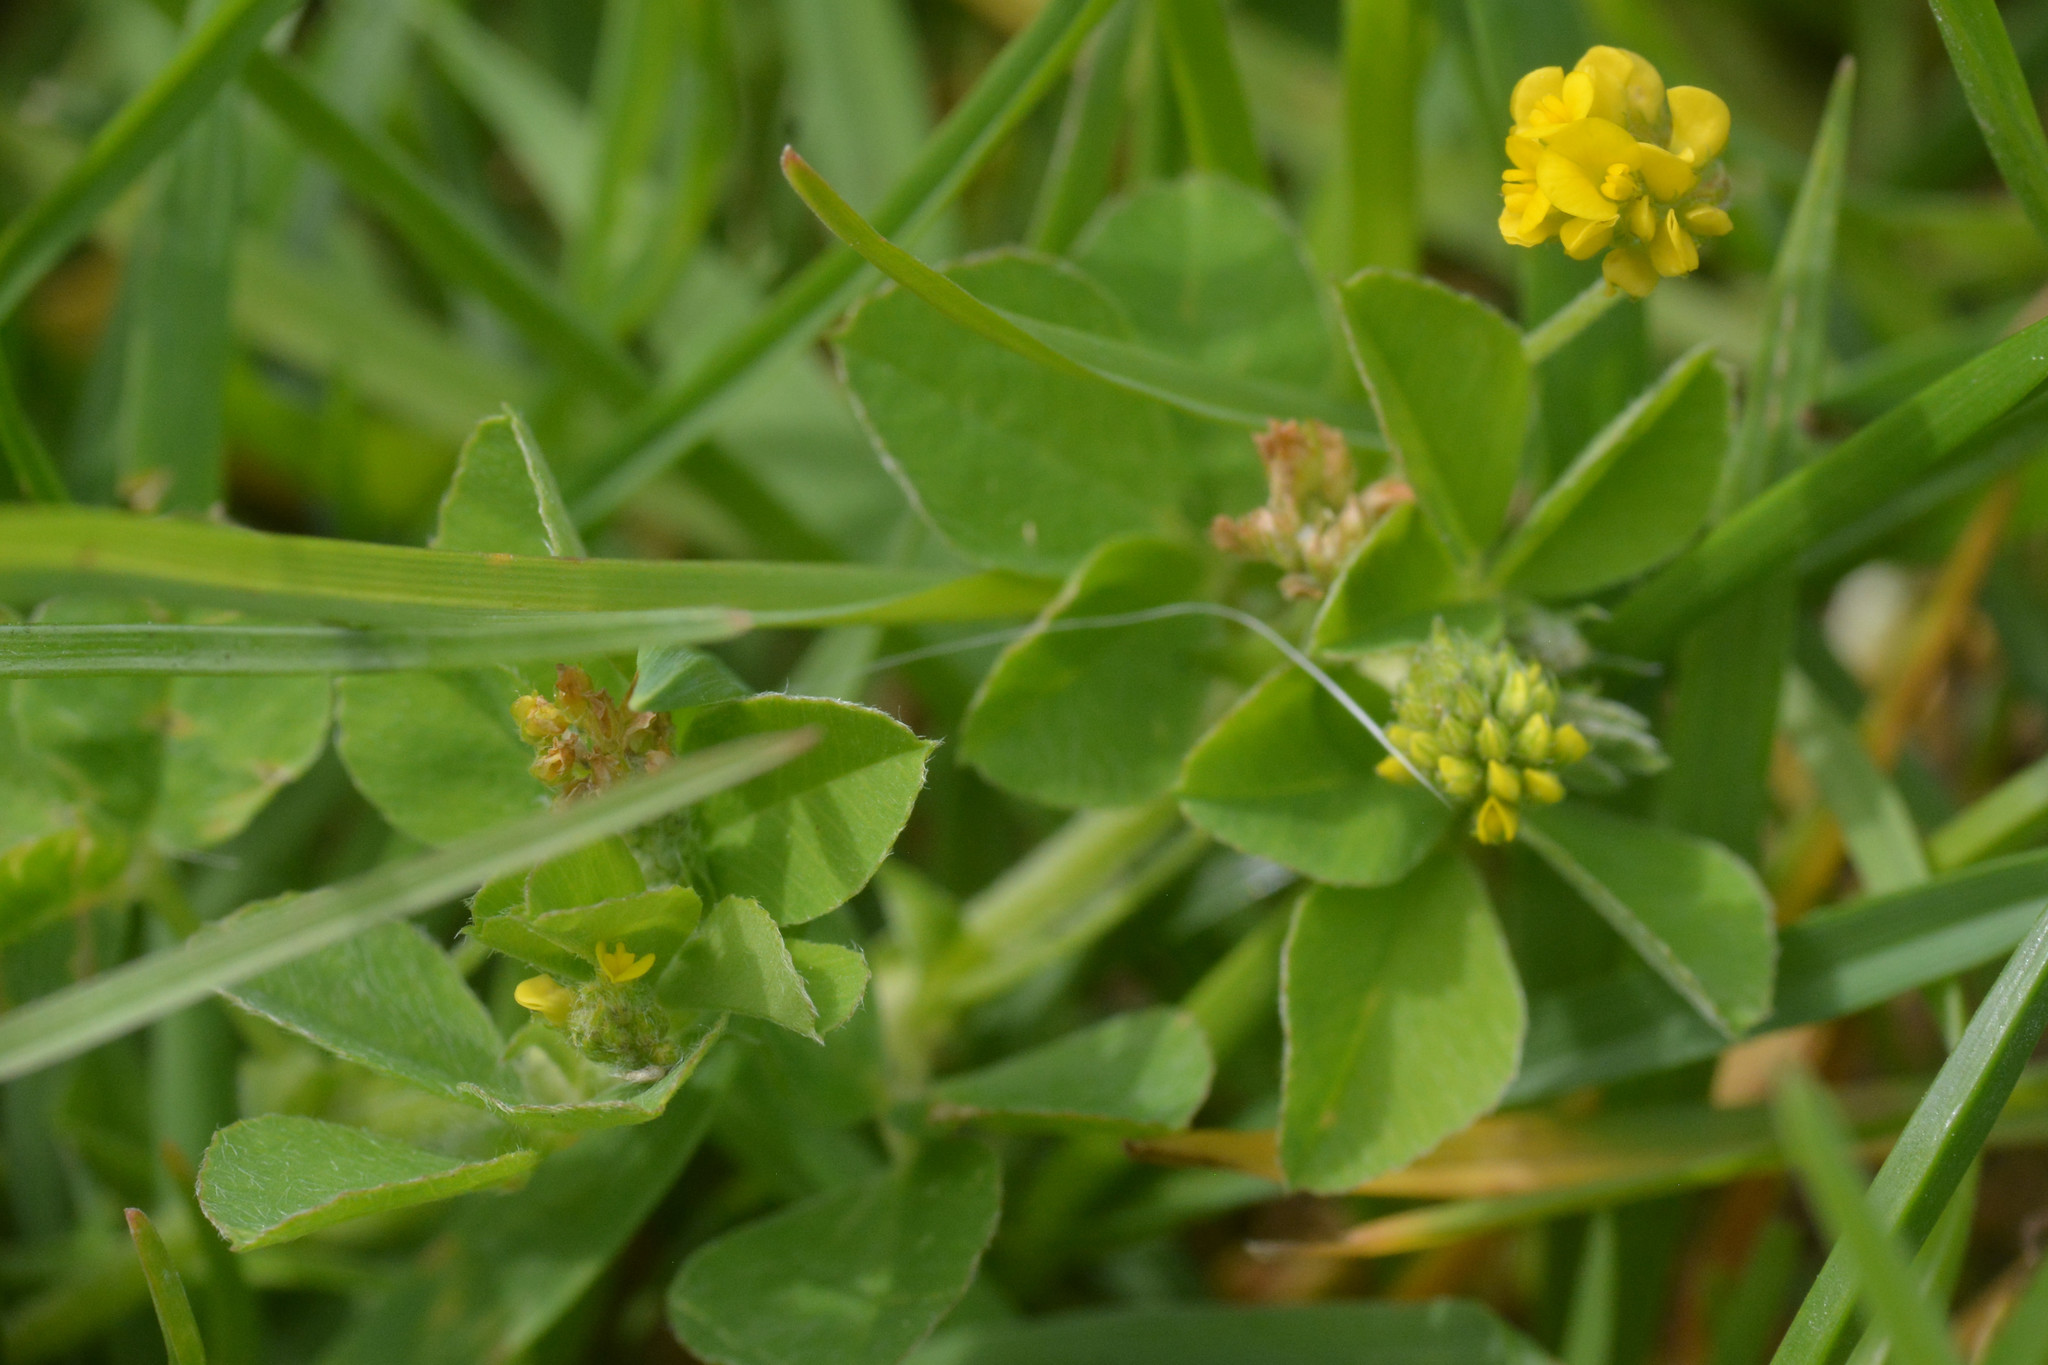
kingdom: Plantae
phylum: Tracheophyta
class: Magnoliopsida
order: Fabales
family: Fabaceae
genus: Medicago
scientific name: Medicago lupulina
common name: Black medick
